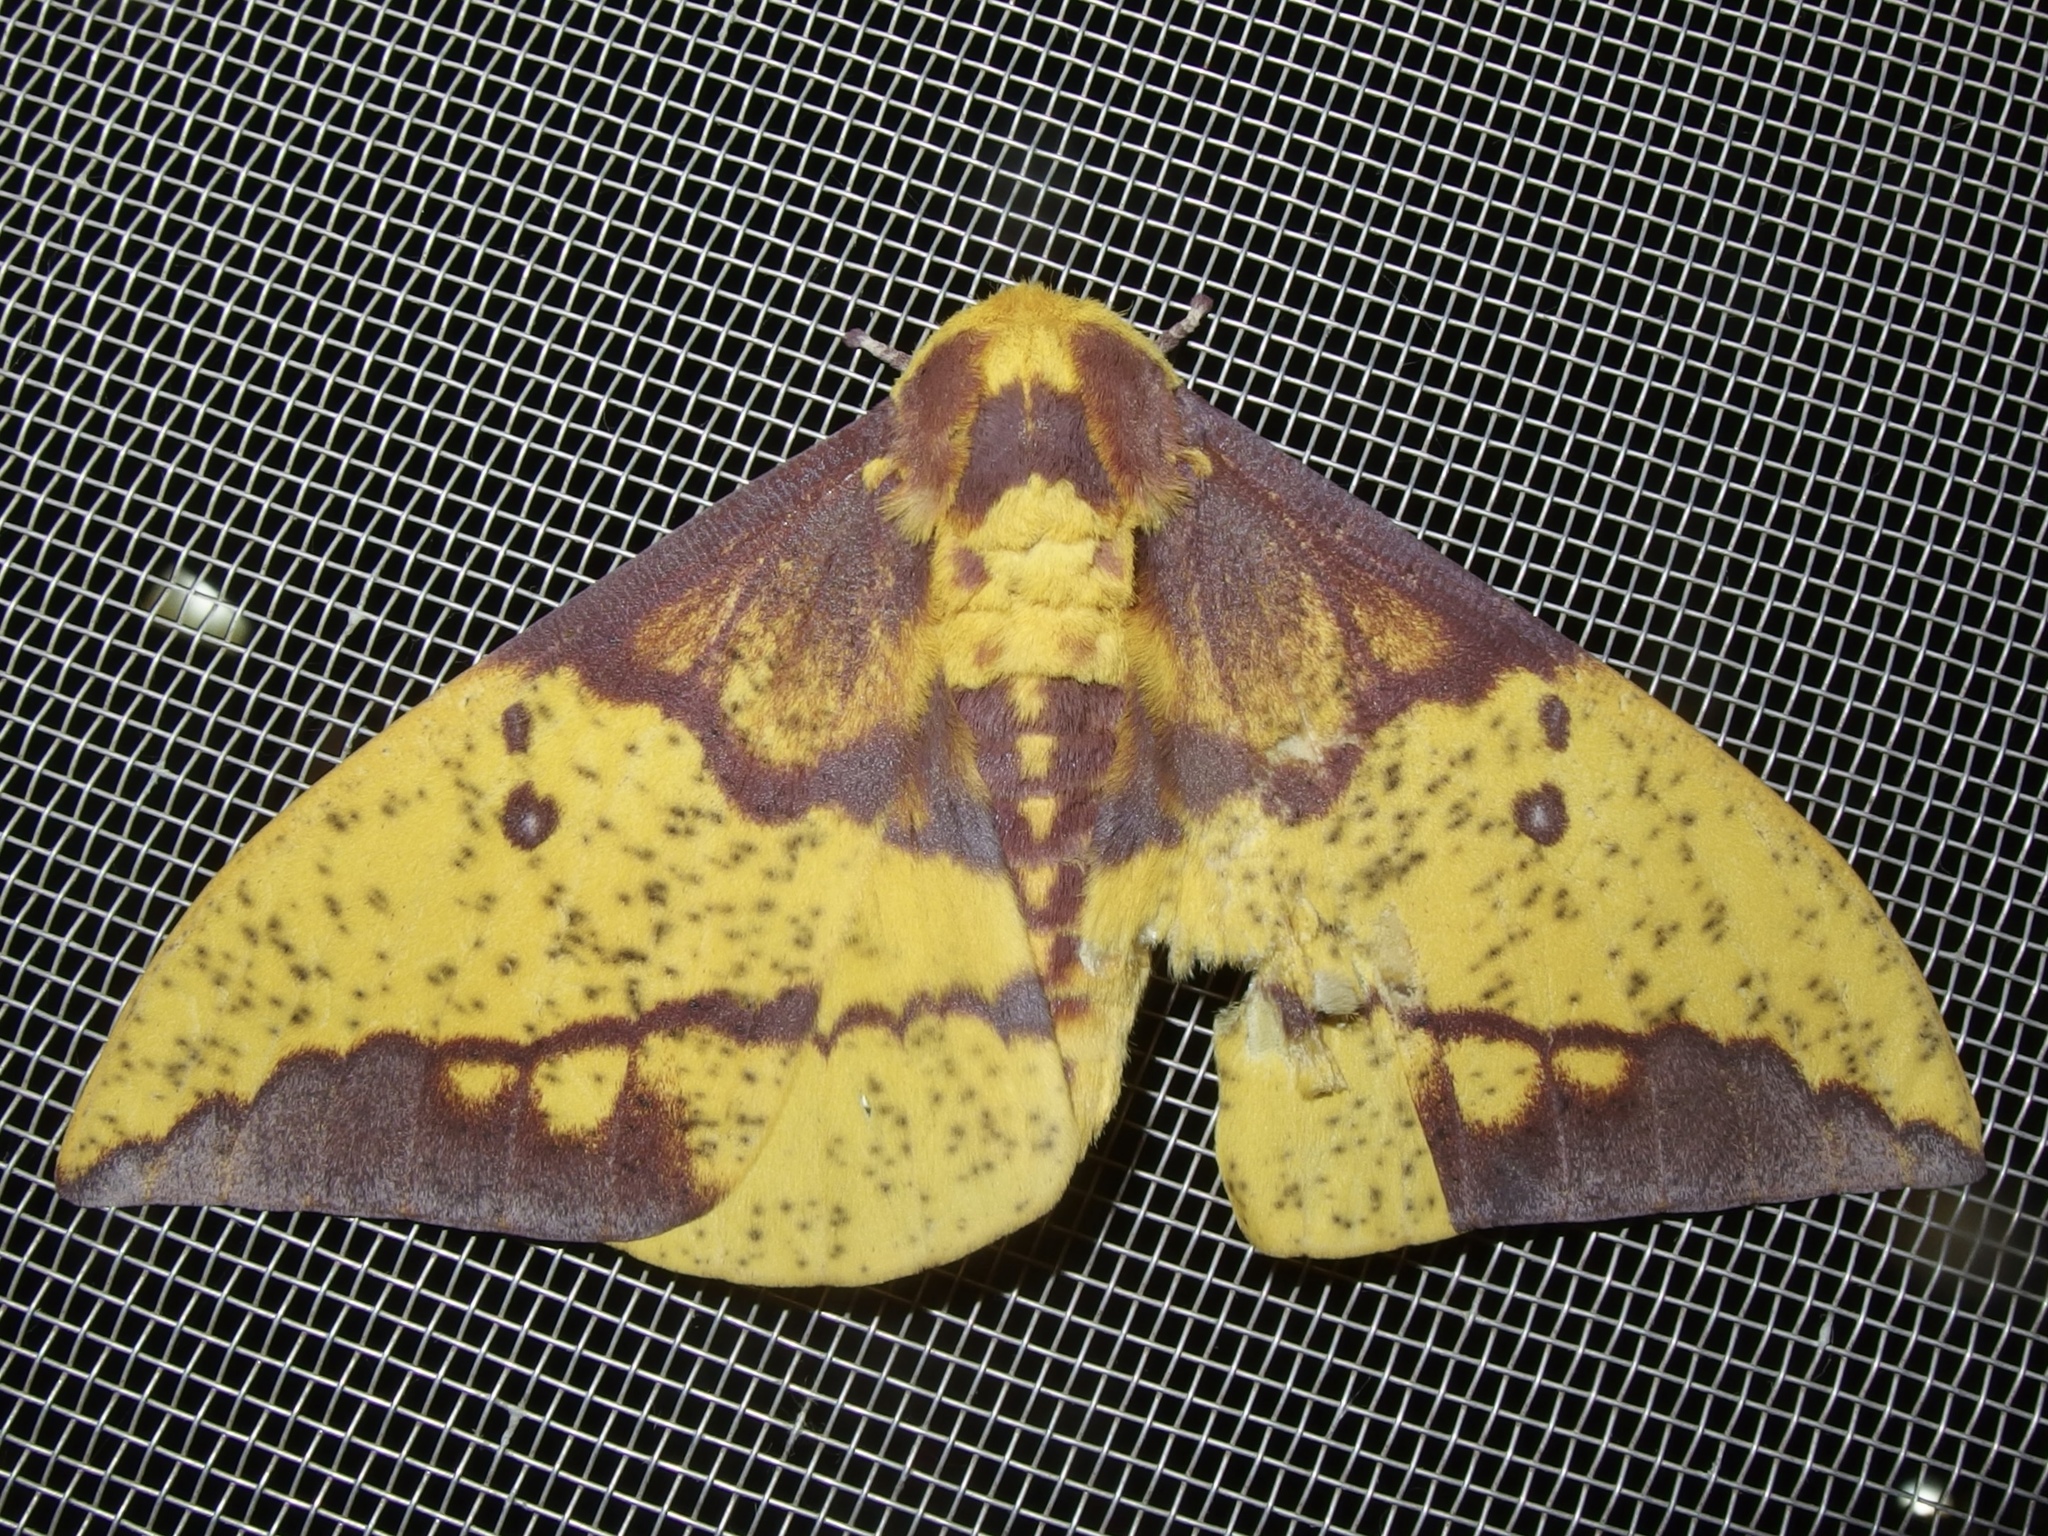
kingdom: Animalia
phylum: Arthropoda
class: Insecta
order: Lepidoptera
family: Saturniidae
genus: Eacles
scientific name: Eacles imperialis
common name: Imperial moth
